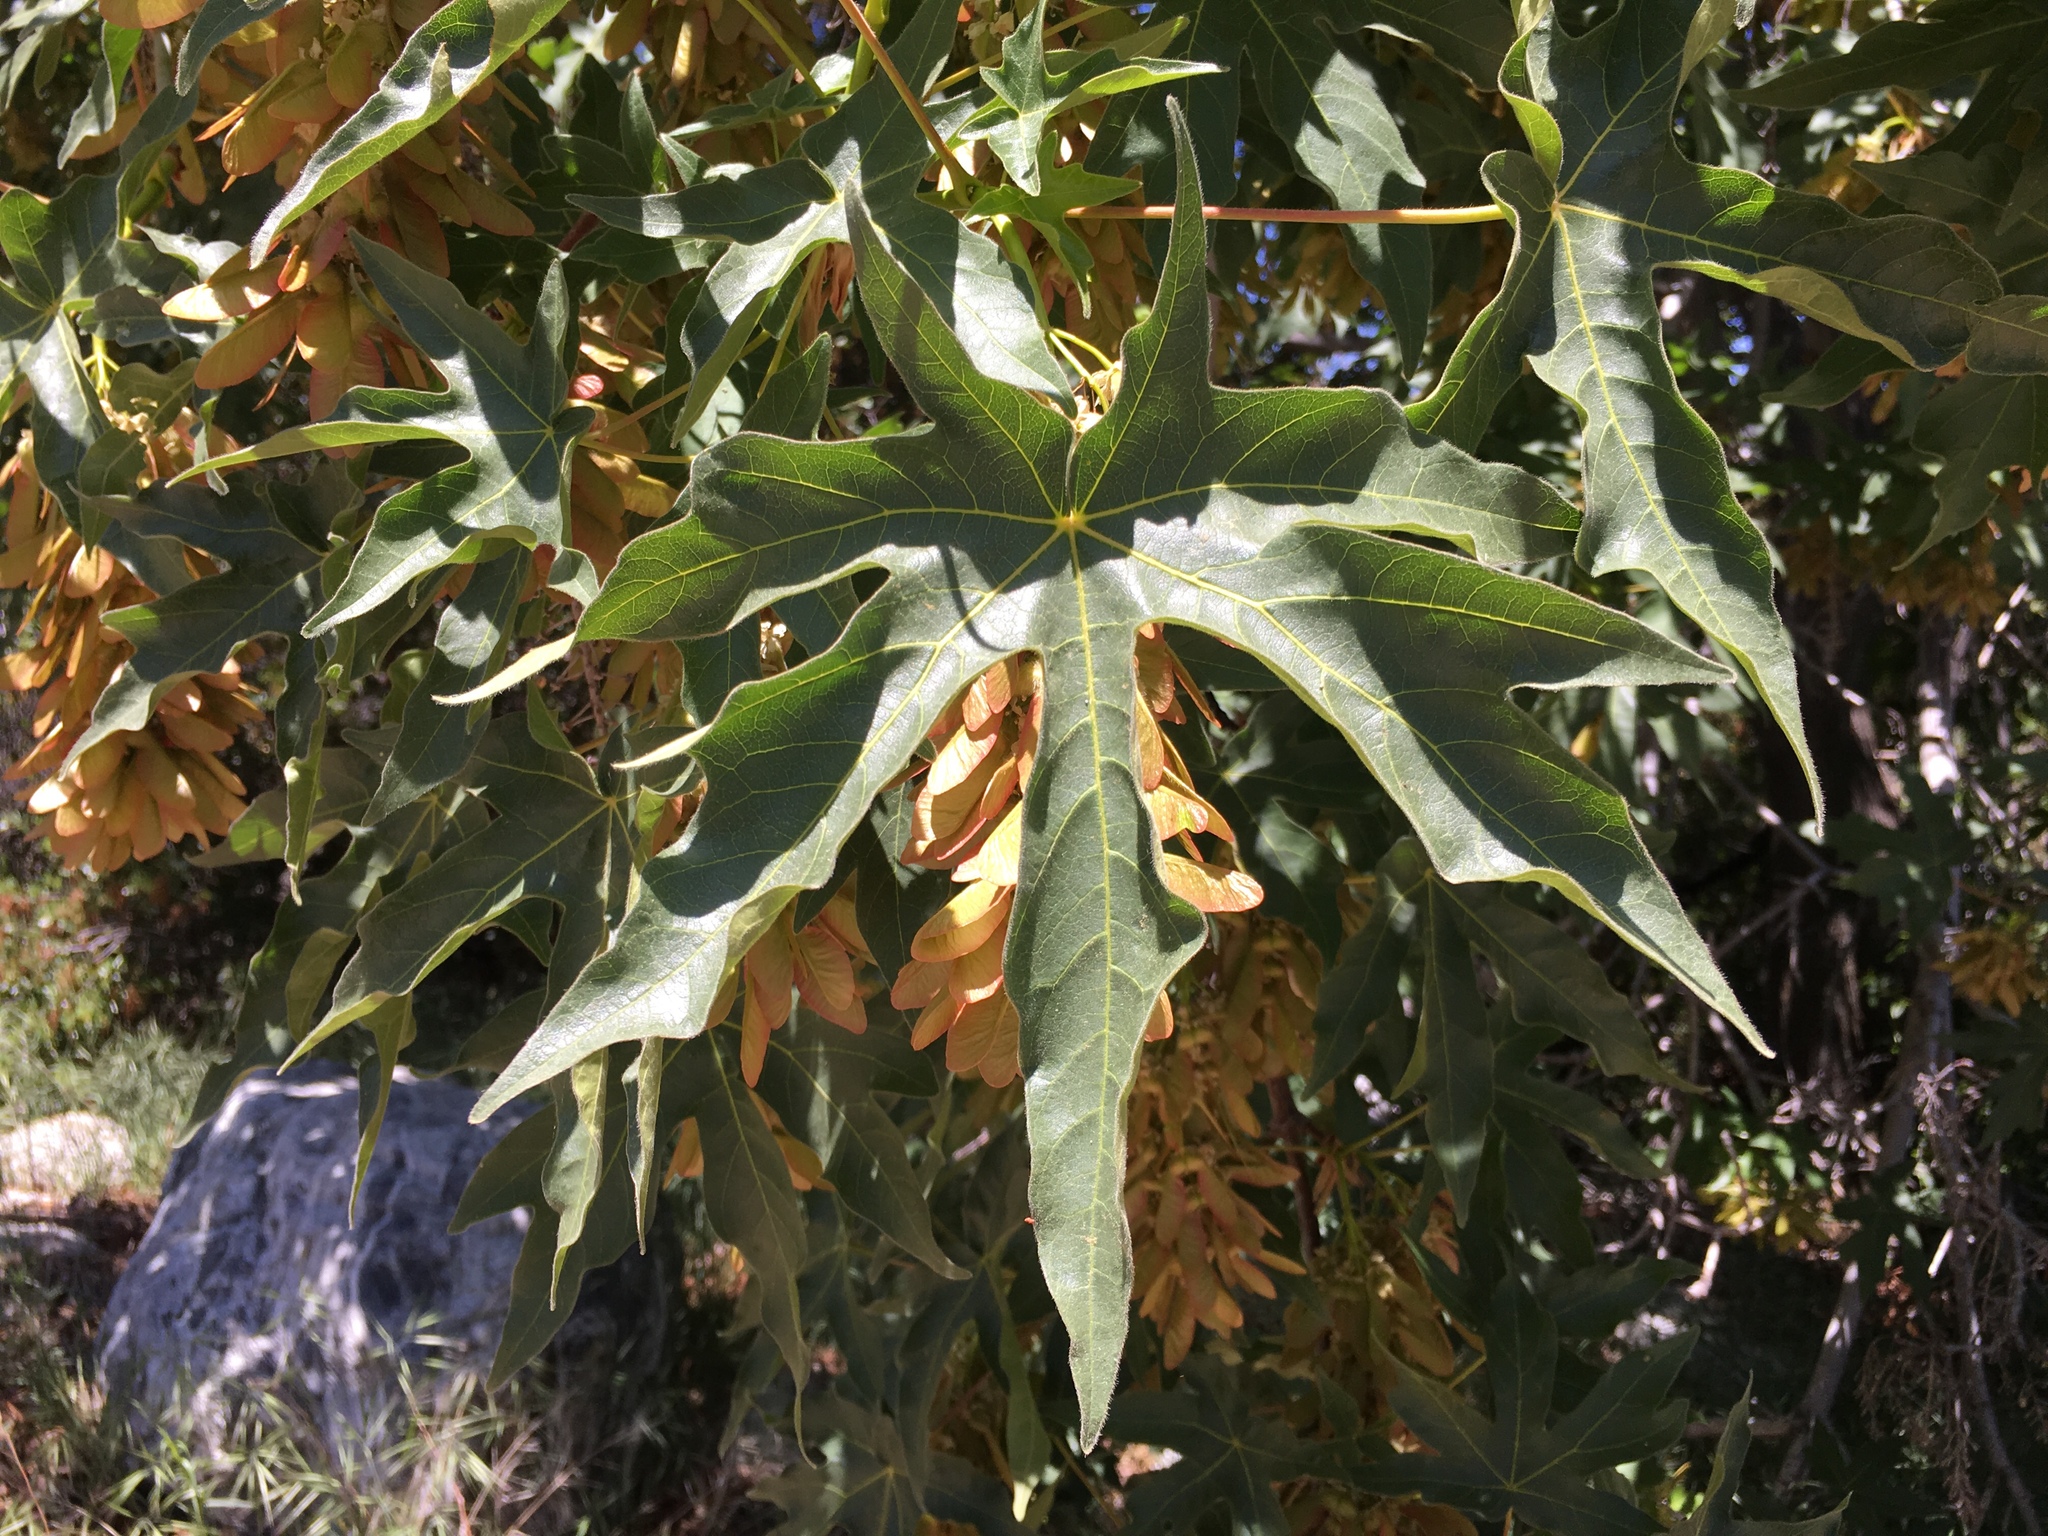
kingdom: Plantae
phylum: Tracheophyta
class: Magnoliopsida
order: Sapindales
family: Sapindaceae
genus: Acer
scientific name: Acer macrophyllum
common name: Oregon maple
